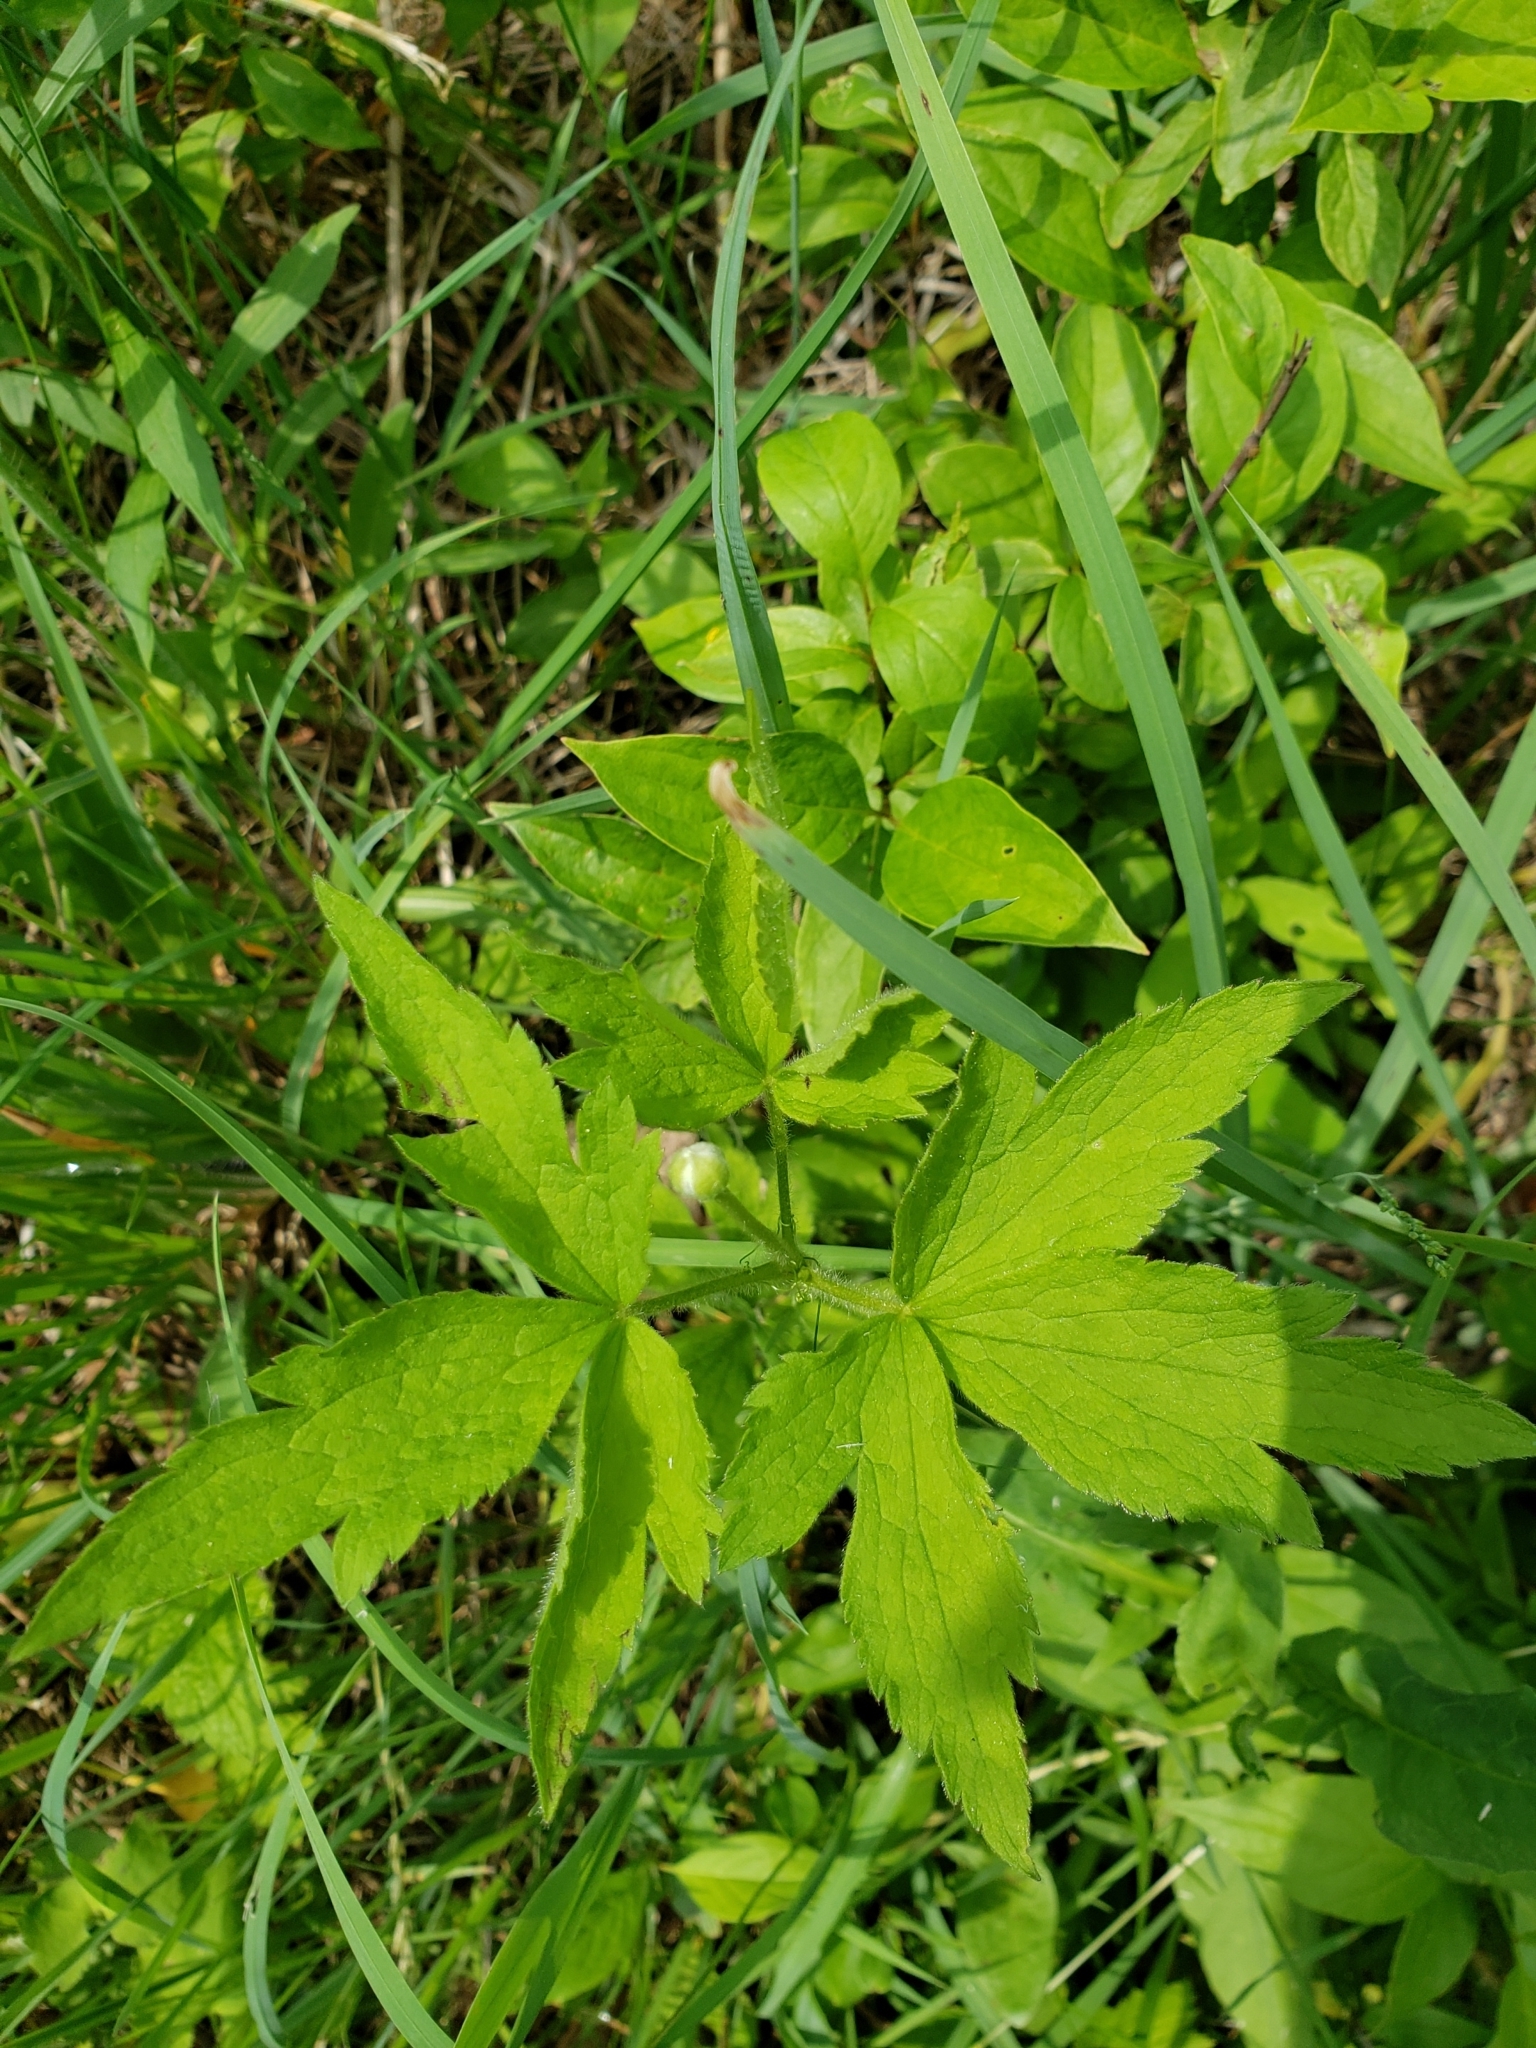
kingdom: Plantae
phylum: Tracheophyta
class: Magnoliopsida
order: Ranunculales
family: Ranunculaceae
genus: Anemone
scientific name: Anemone virginiana
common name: Tall anemone
